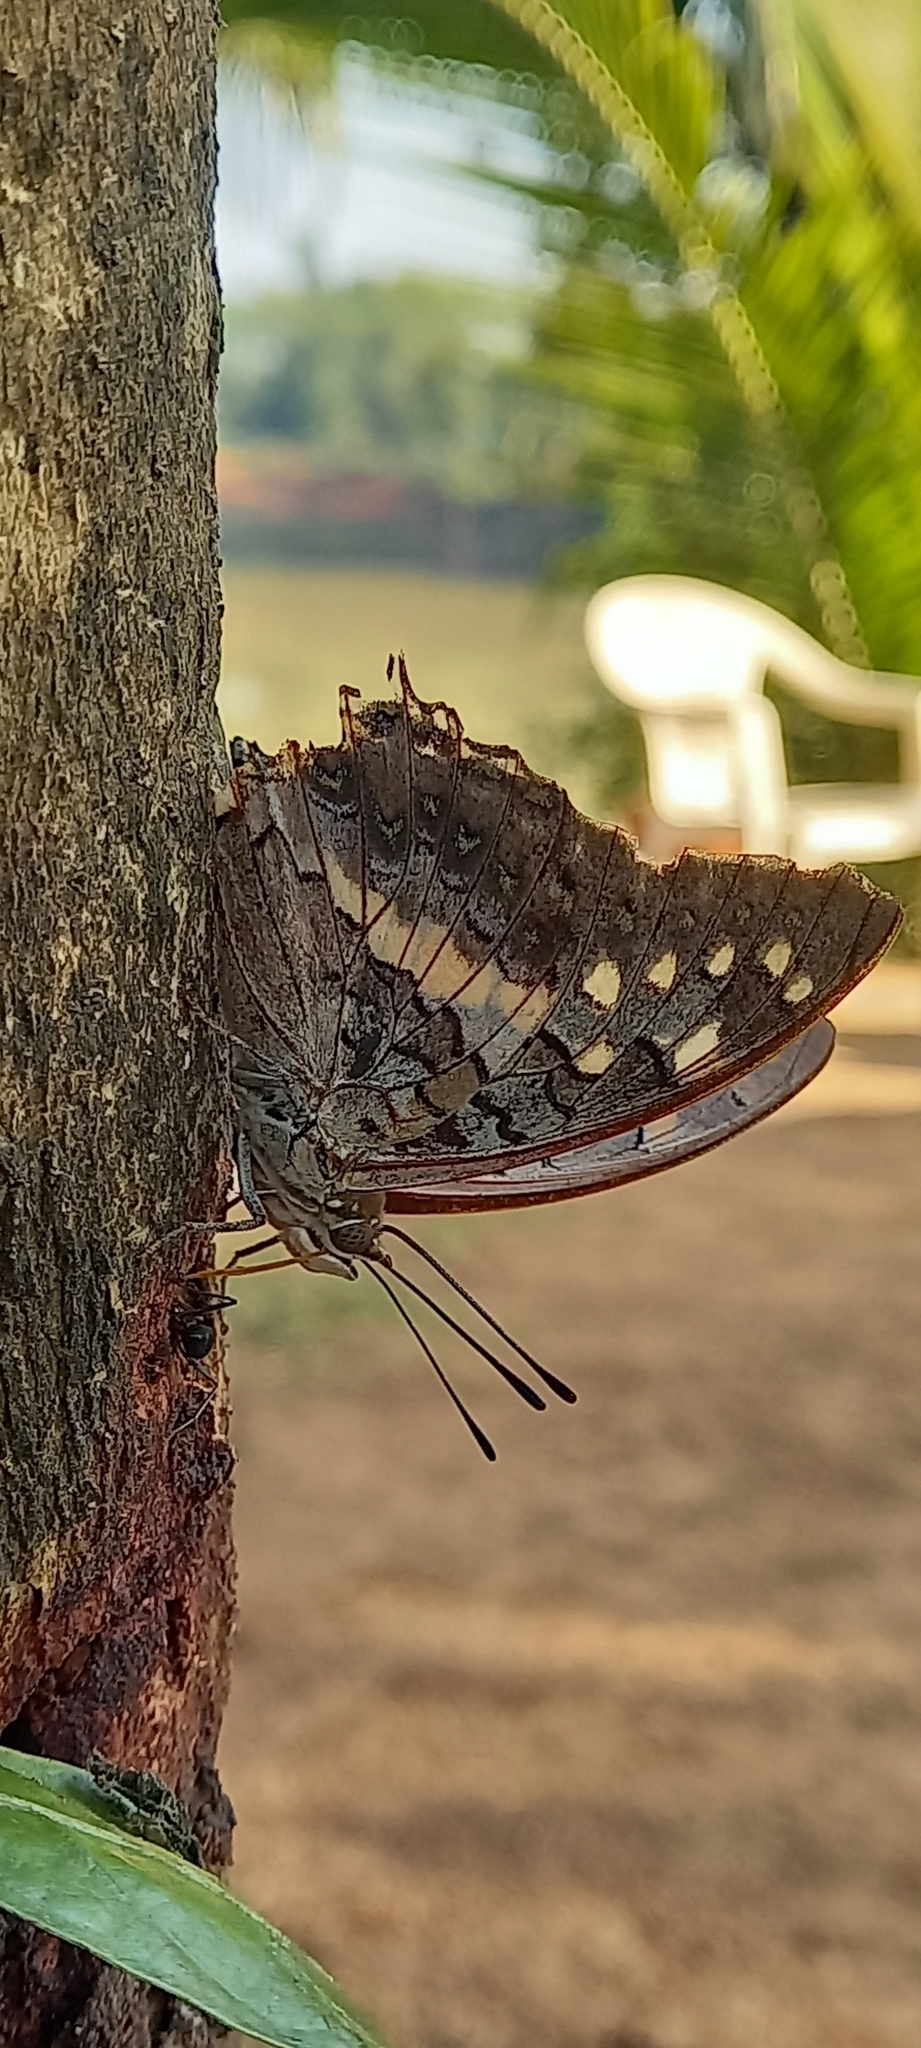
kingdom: Animalia
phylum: Arthropoda
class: Insecta
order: Lepidoptera
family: Nymphalidae
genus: Charaxes
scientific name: Charaxes solon
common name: Black rajah
